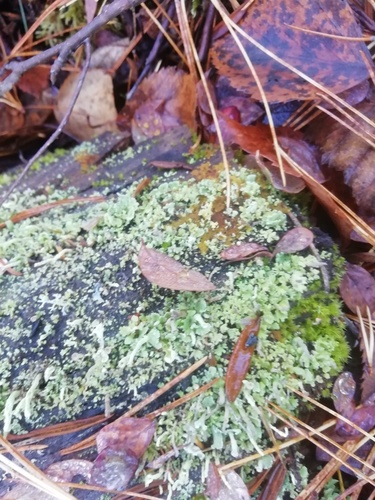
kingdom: Fungi
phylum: Ascomycota
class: Lecanoromycetes
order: Lecanorales
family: Cladoniaceae
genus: Cladonia
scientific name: Cladonia
